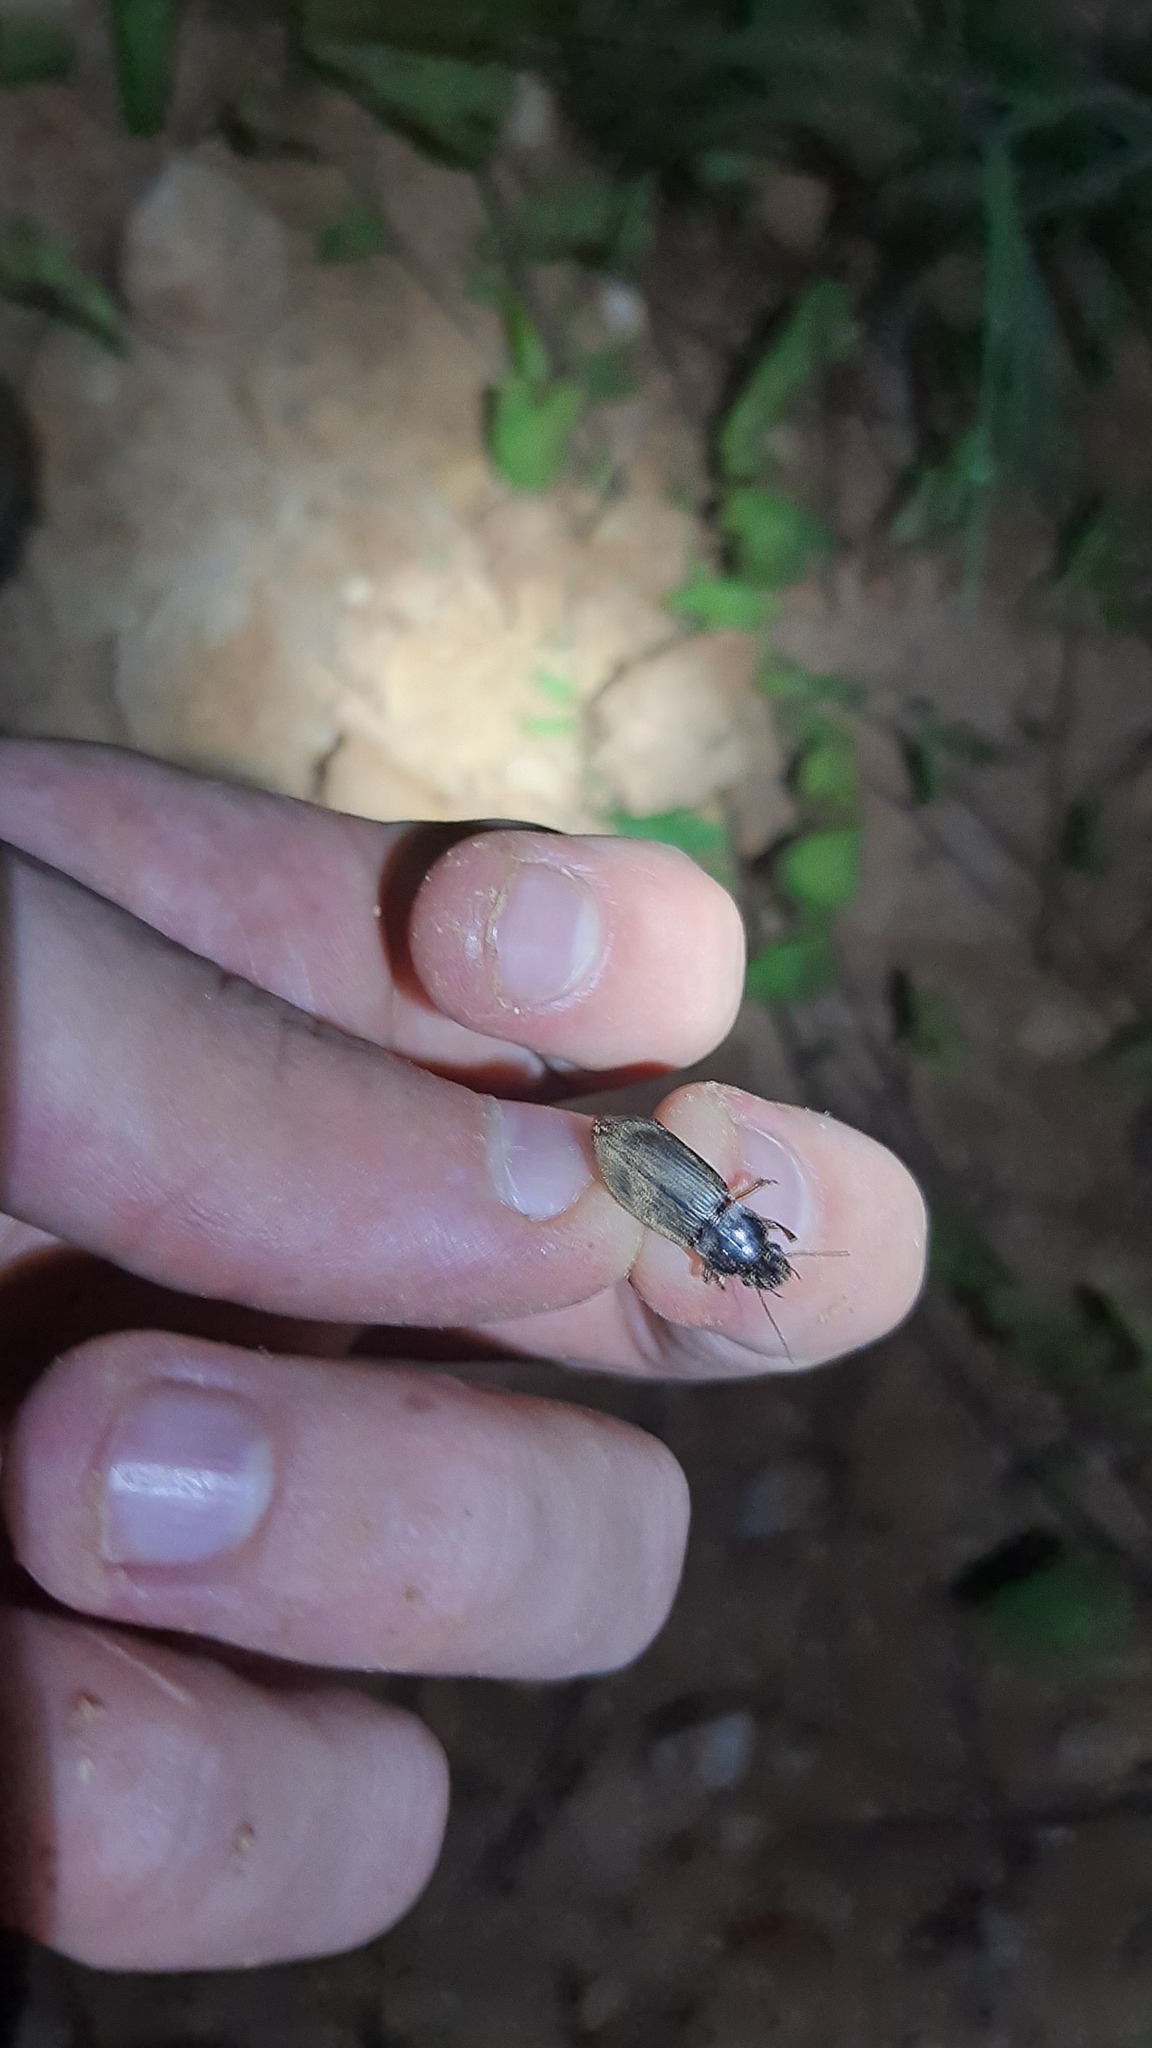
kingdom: Animalia
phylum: Arthropoda
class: Insecta
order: Coleoptera
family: Carabidae
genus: Harpalus
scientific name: Harpalus rufipes
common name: Strawberry harp ground beetle
